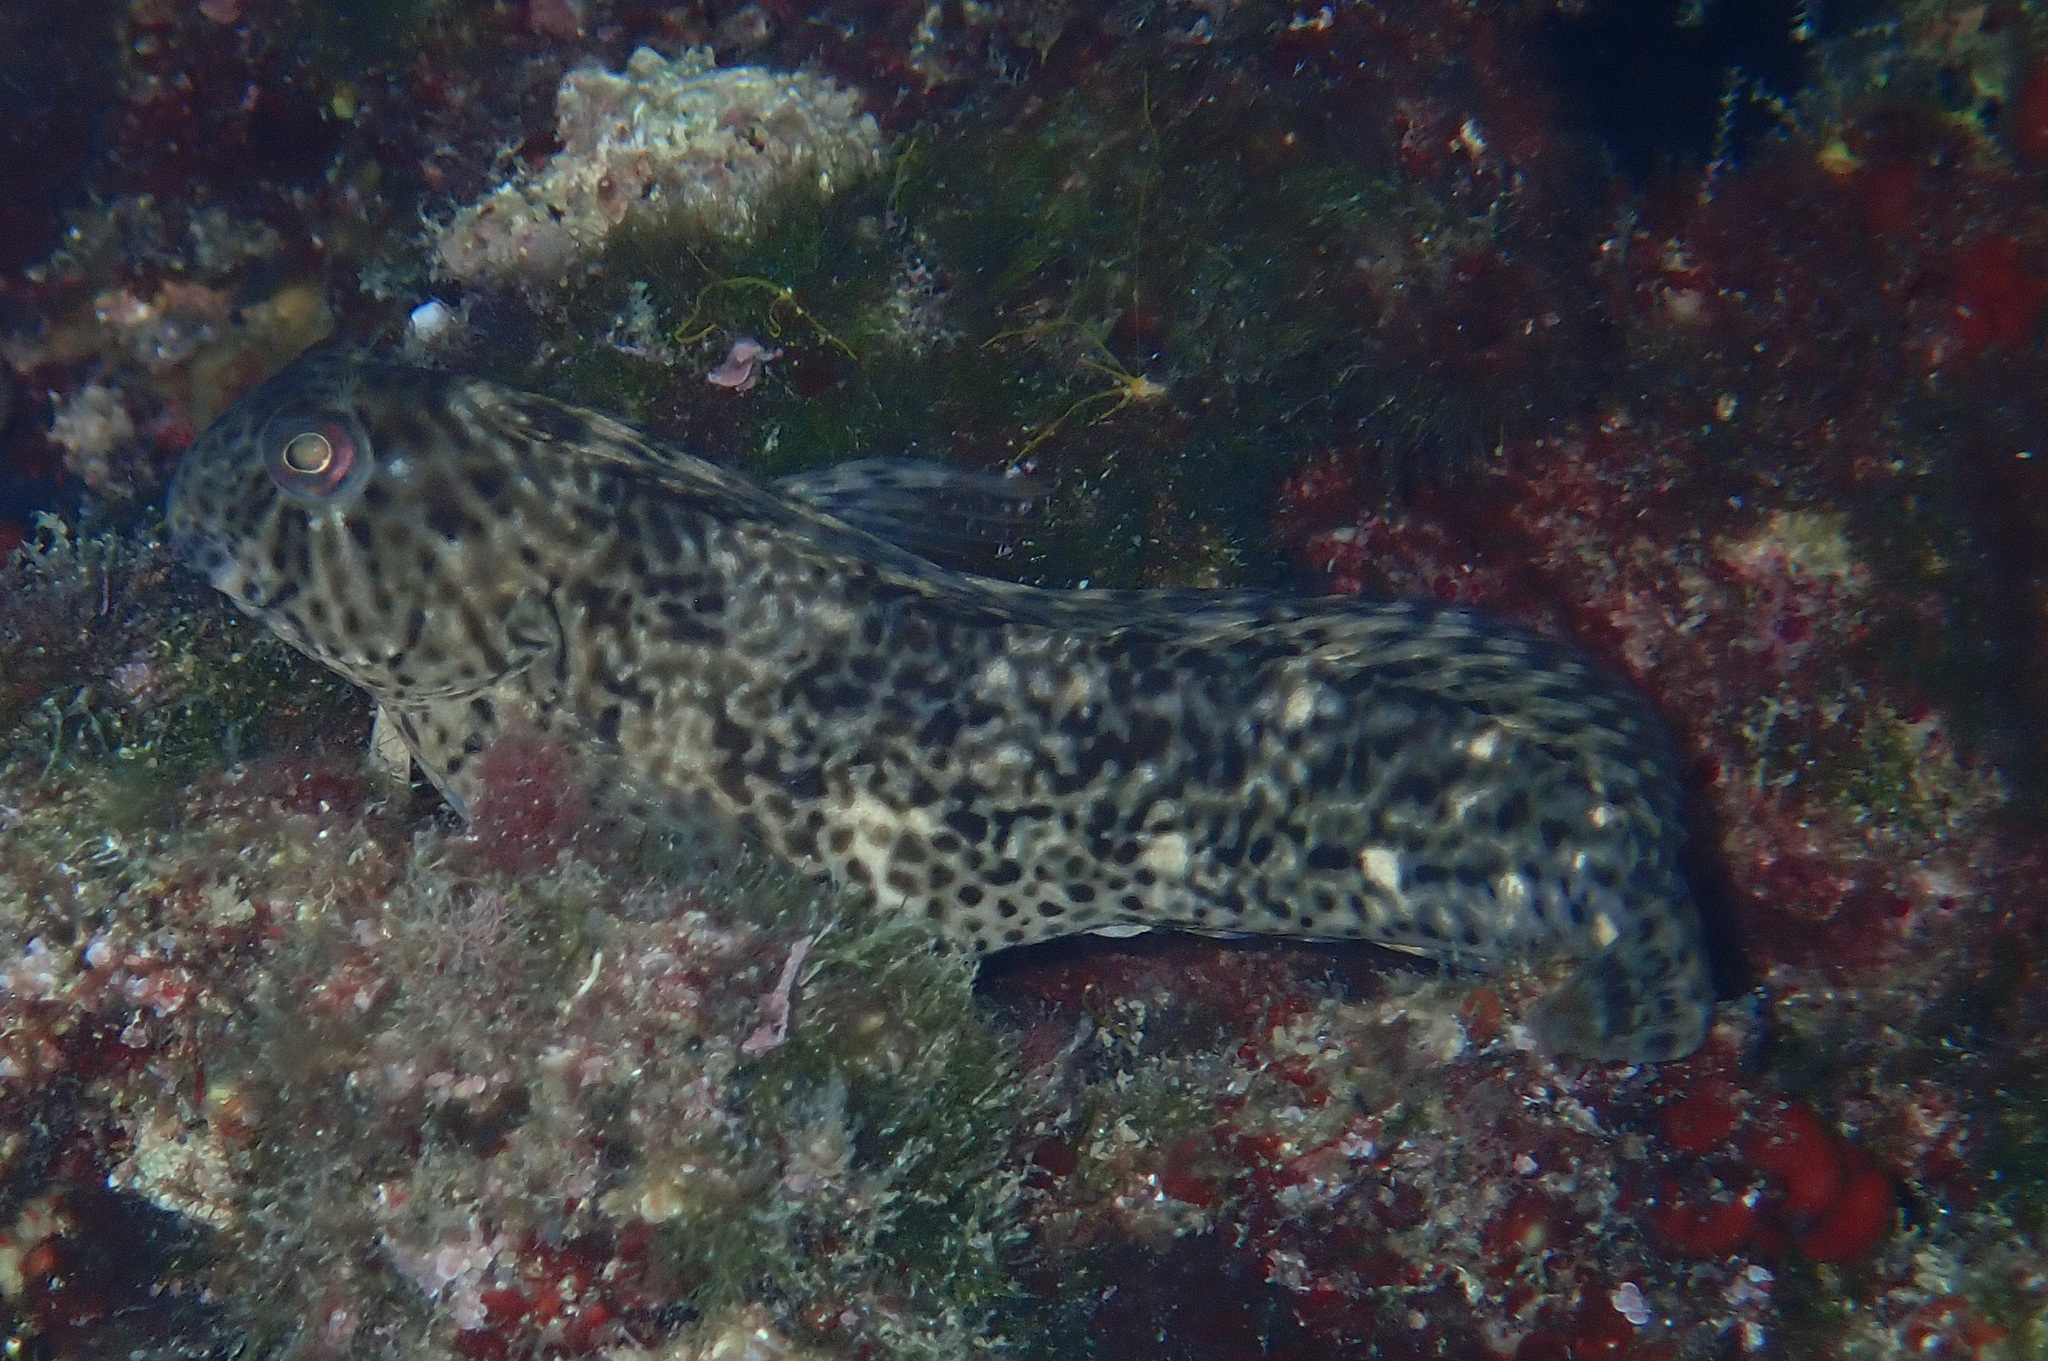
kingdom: Animalia
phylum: Chordata
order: Perciformes
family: Blenniidae
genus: Parablennius
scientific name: Parablennius sanguinolentus
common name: Black sea blenny
